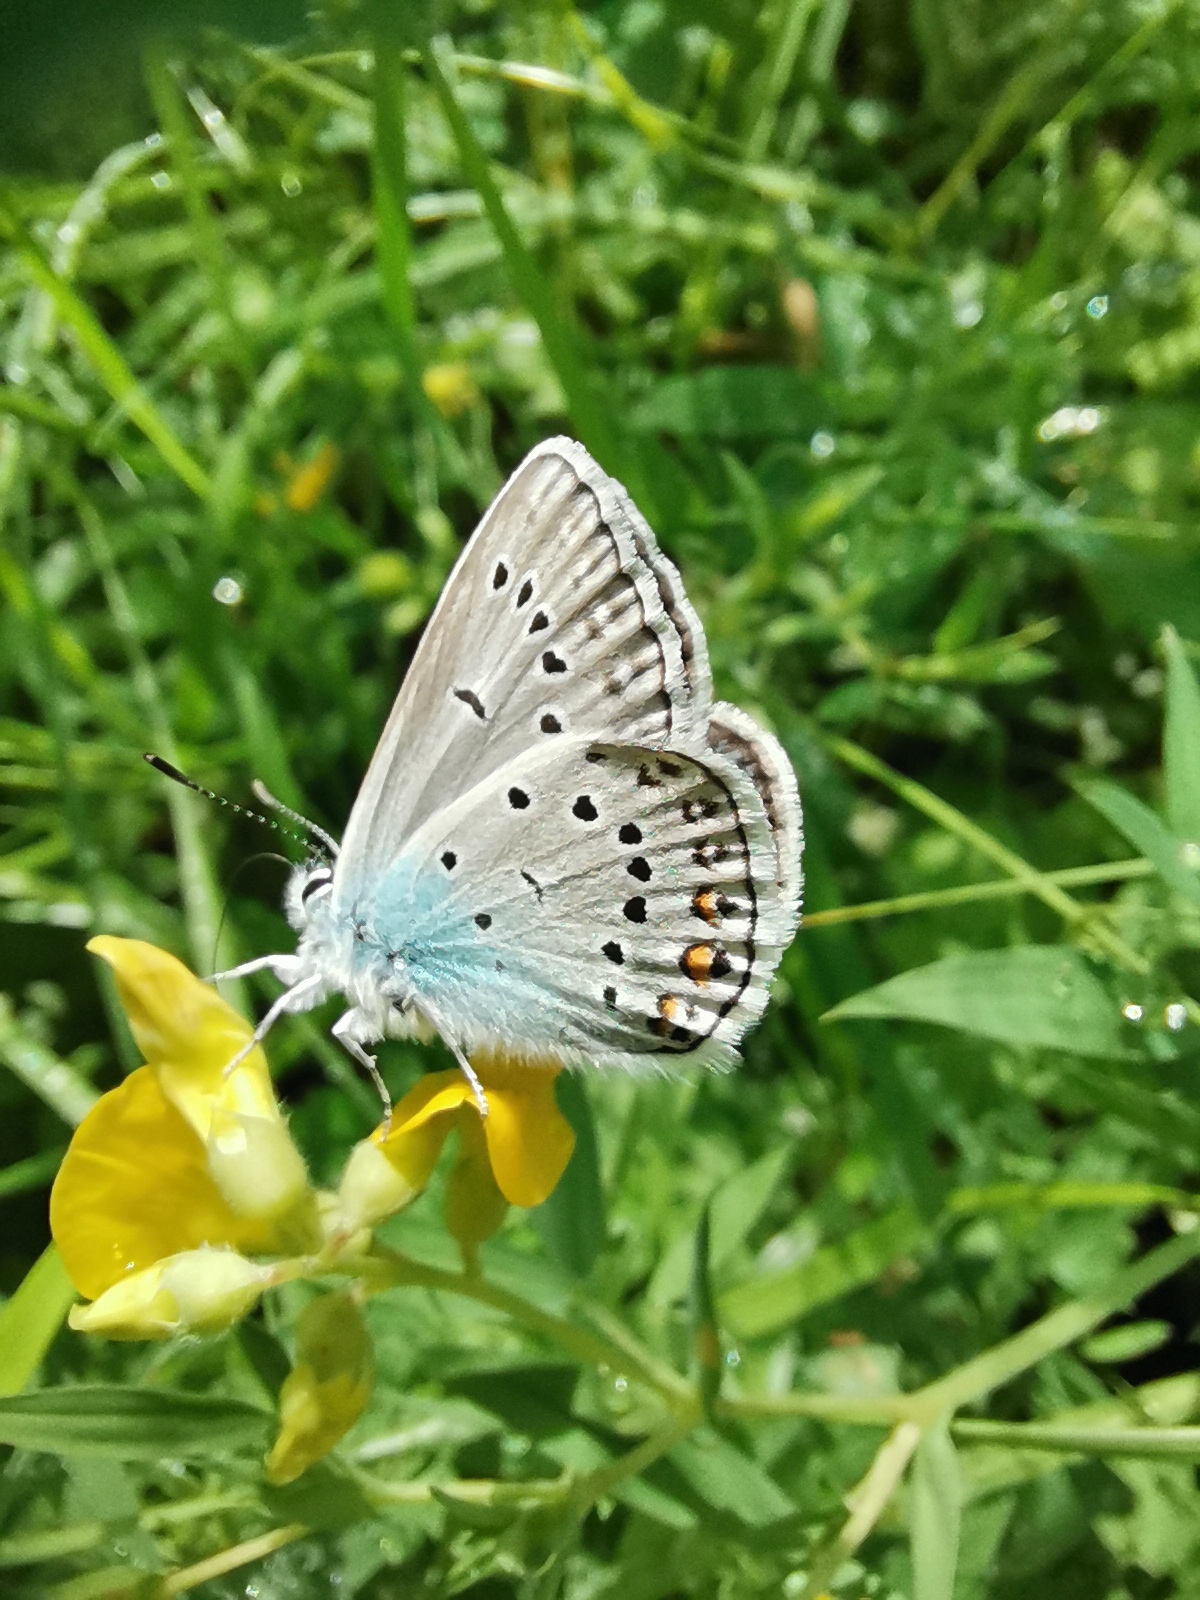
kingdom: Animalia
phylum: Arthropoda
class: Insecta
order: Lepidoptera
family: Lycaenidae
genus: Plebejus
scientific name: Plebejus amanda
